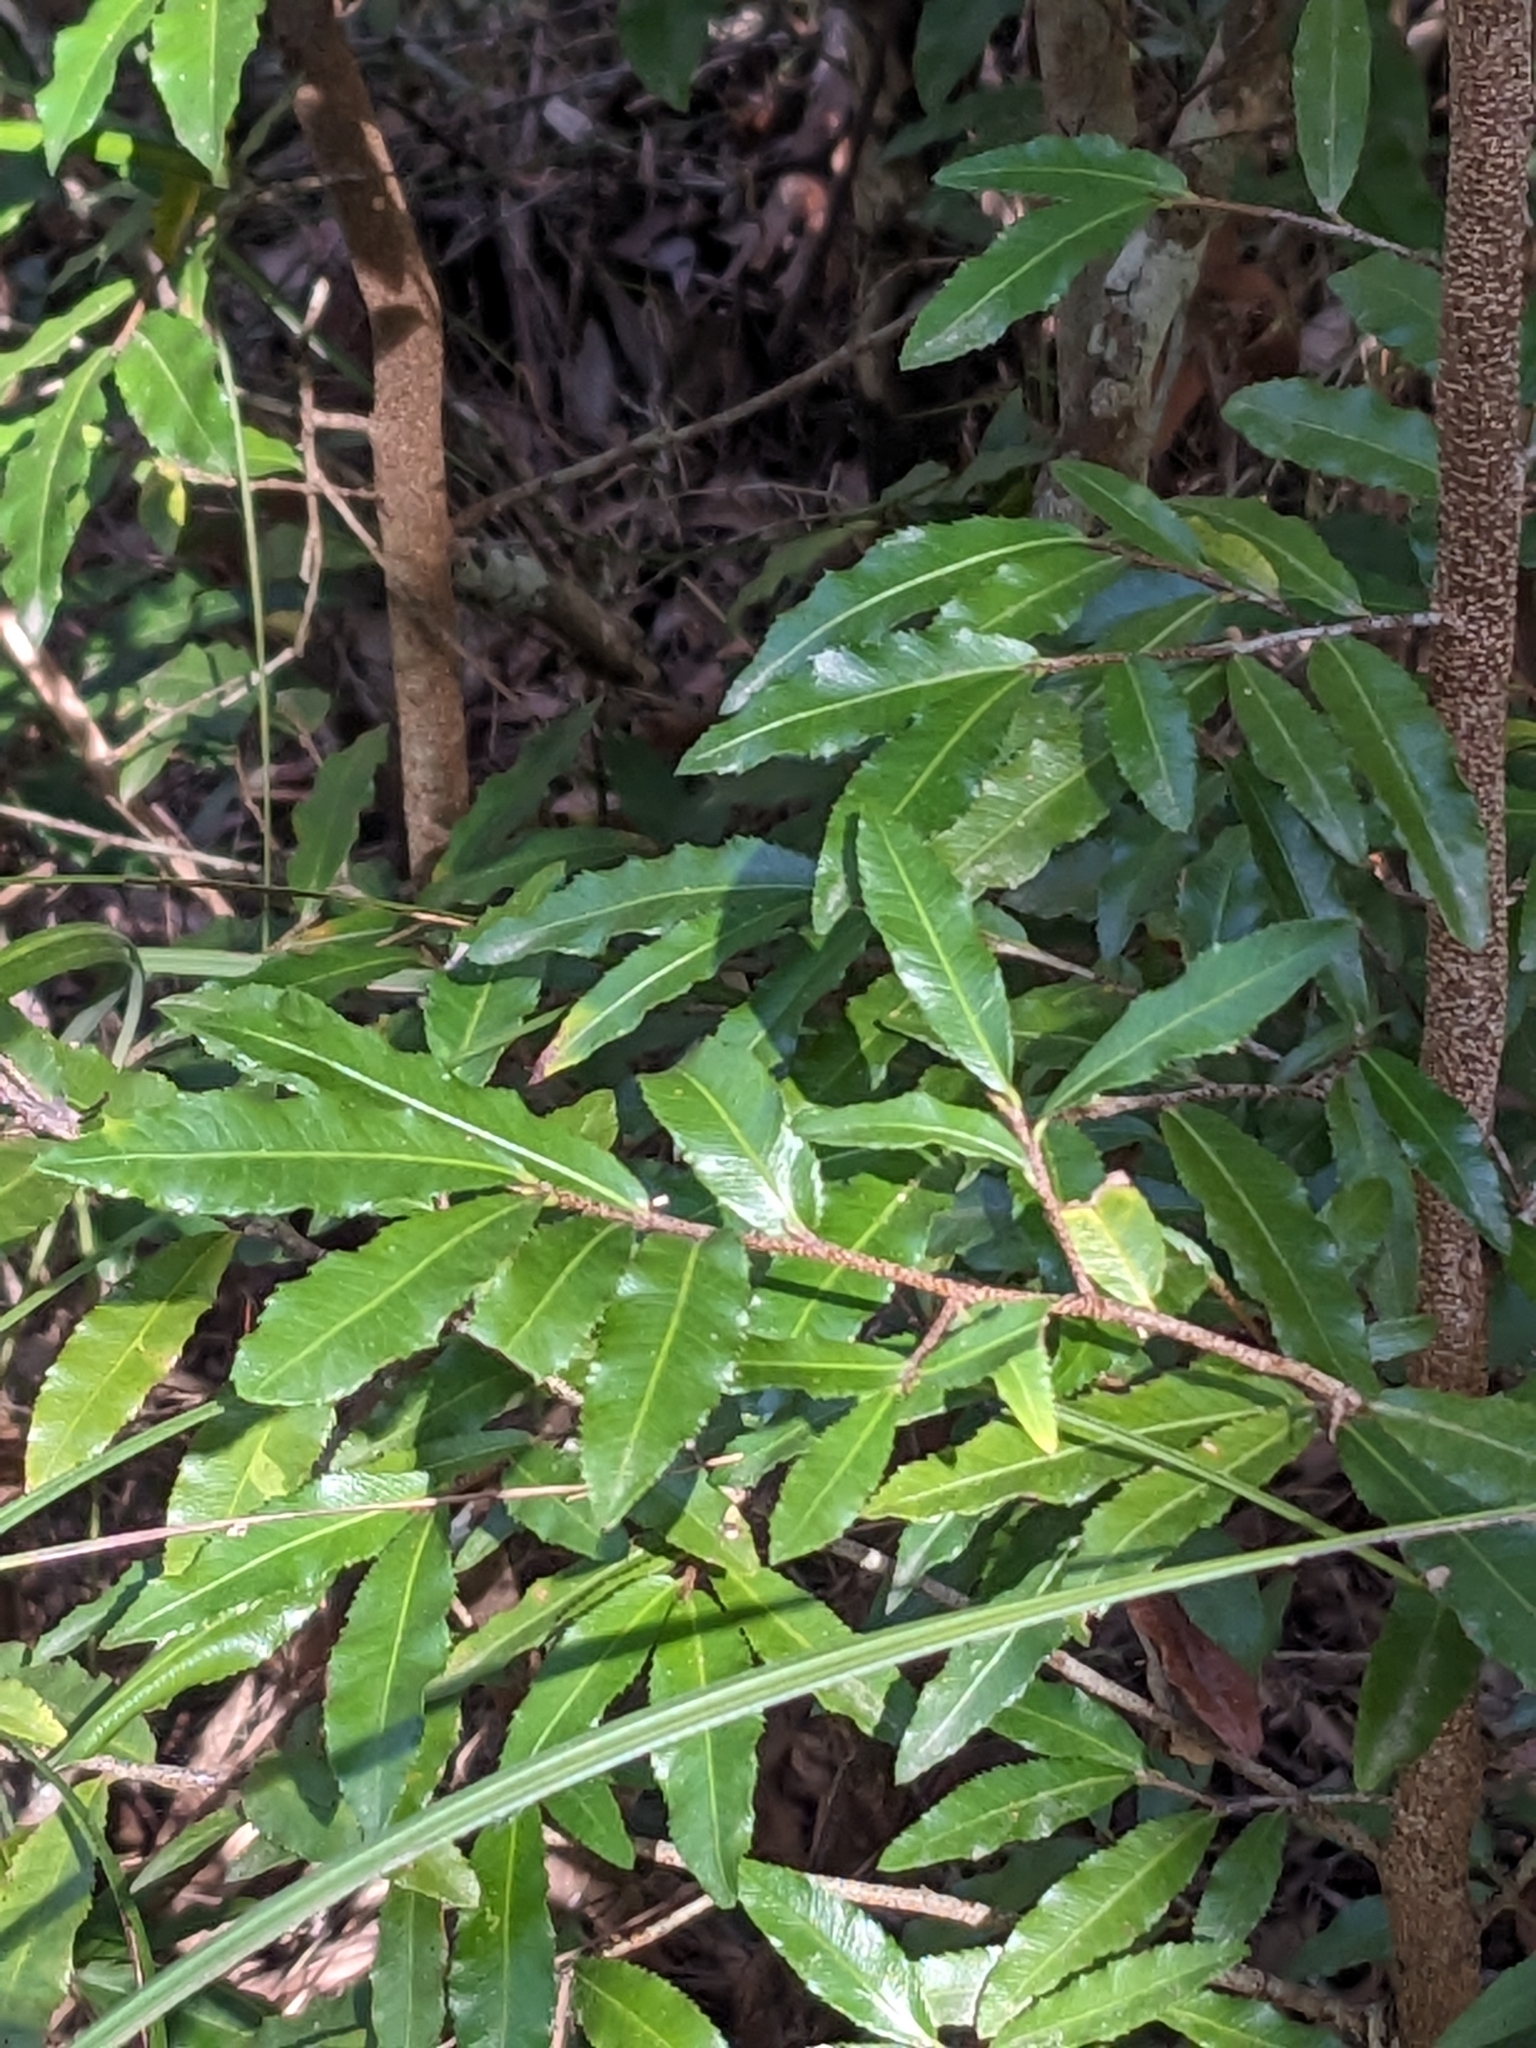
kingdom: Plantae
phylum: Tracheophyta
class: Magnoliopsida
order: Malpighiales
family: Ochnaceae
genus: Ochna
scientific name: Ochna serrulata
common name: Mickey mouse plant
